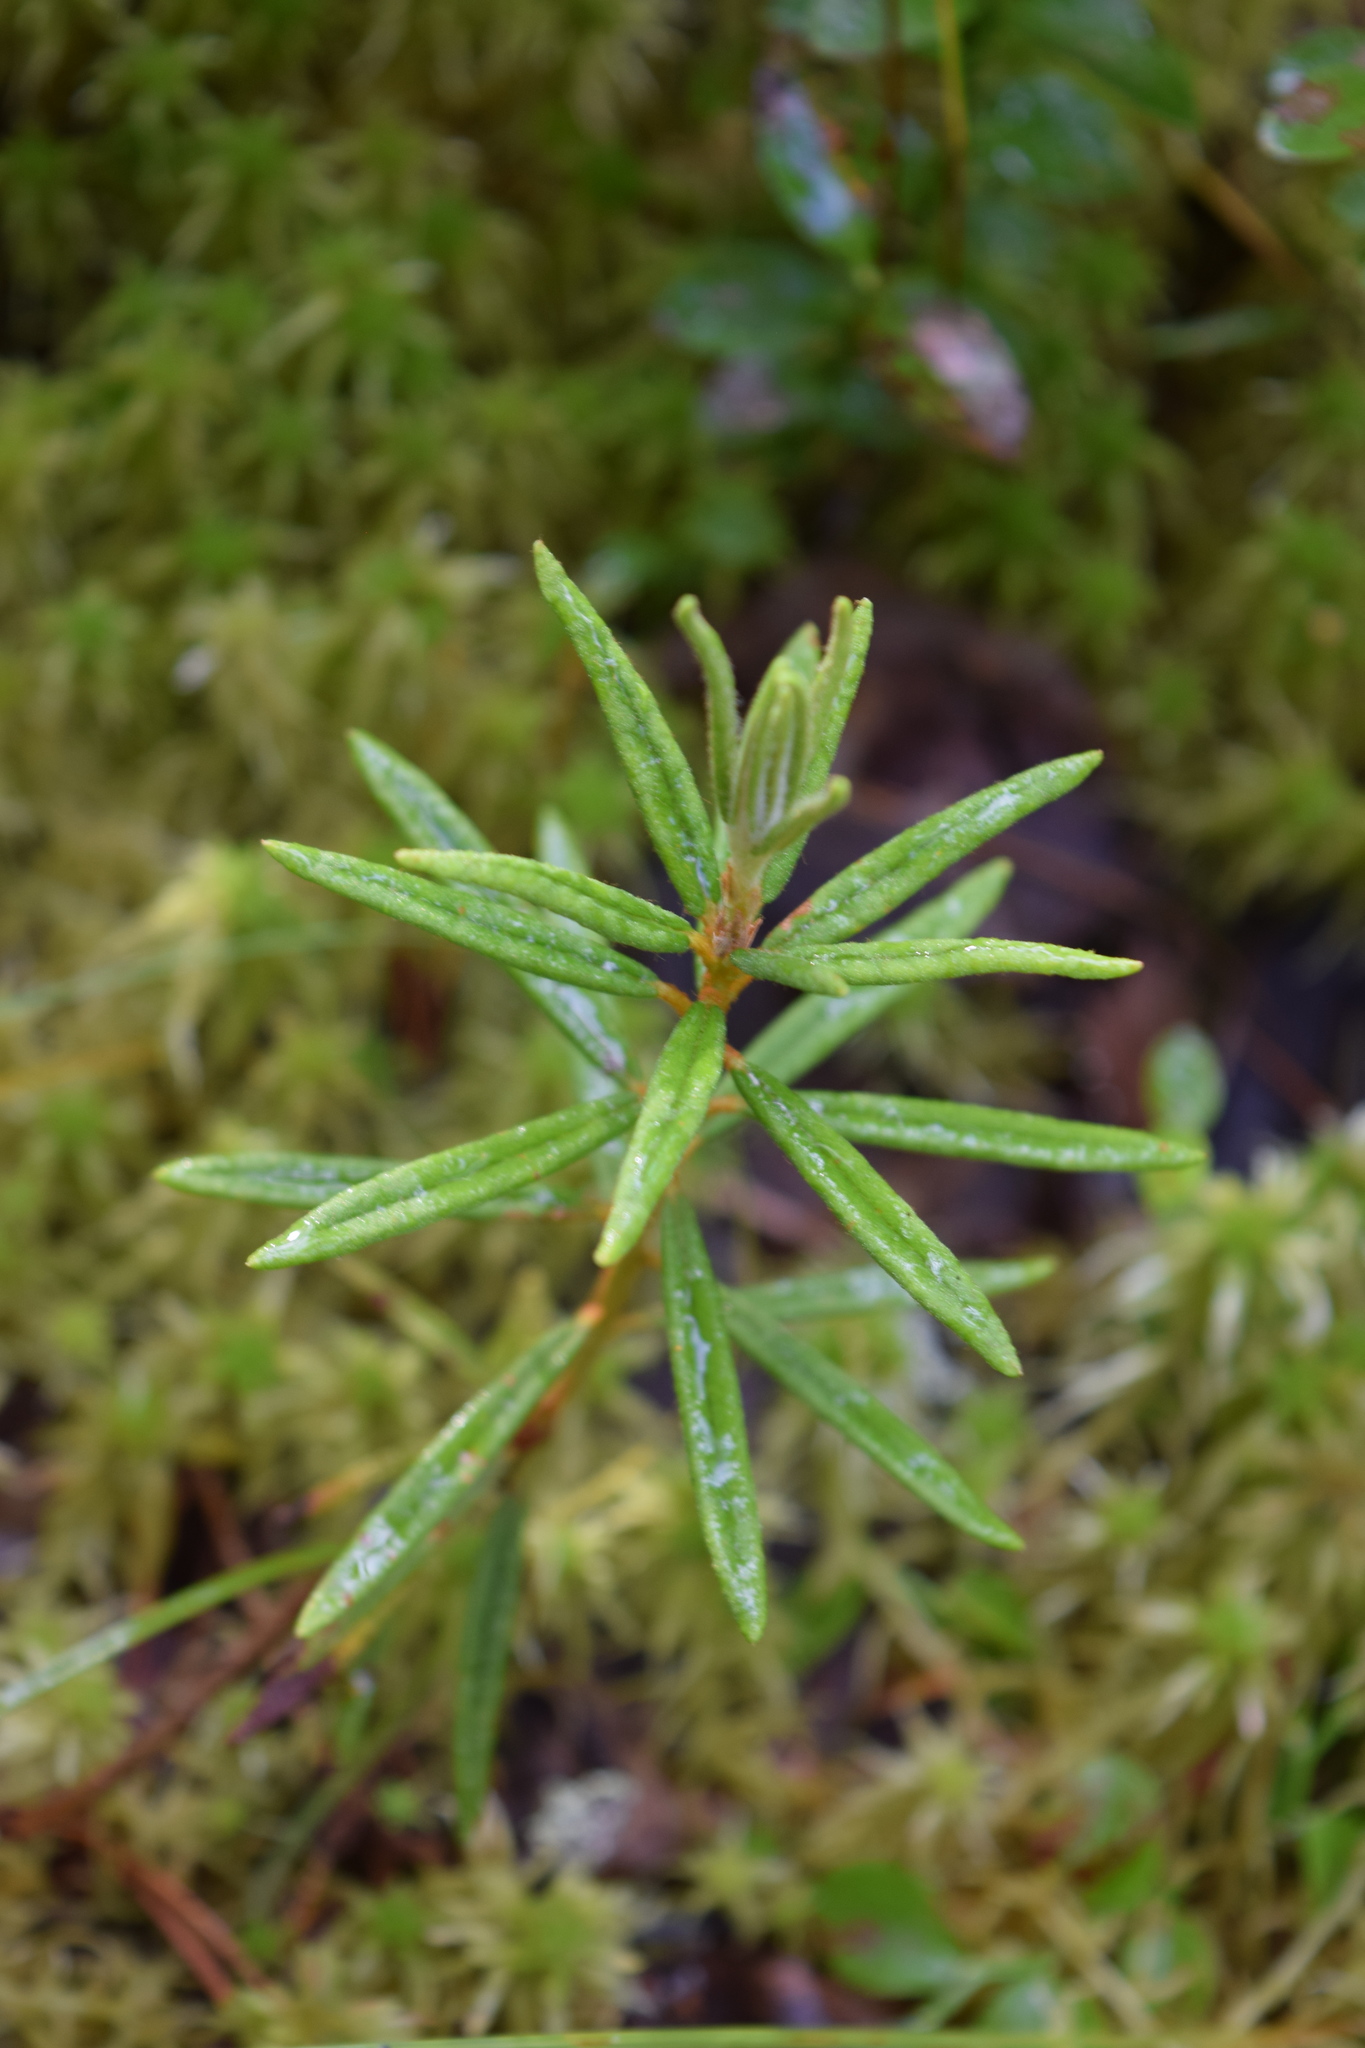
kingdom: Plantae
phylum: Tracheophyta
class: Magnoliopsida
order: Ericales
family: Ericaceae
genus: Rhododendron
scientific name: Rhododendron tomentosum
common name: Marsh labrador tea
